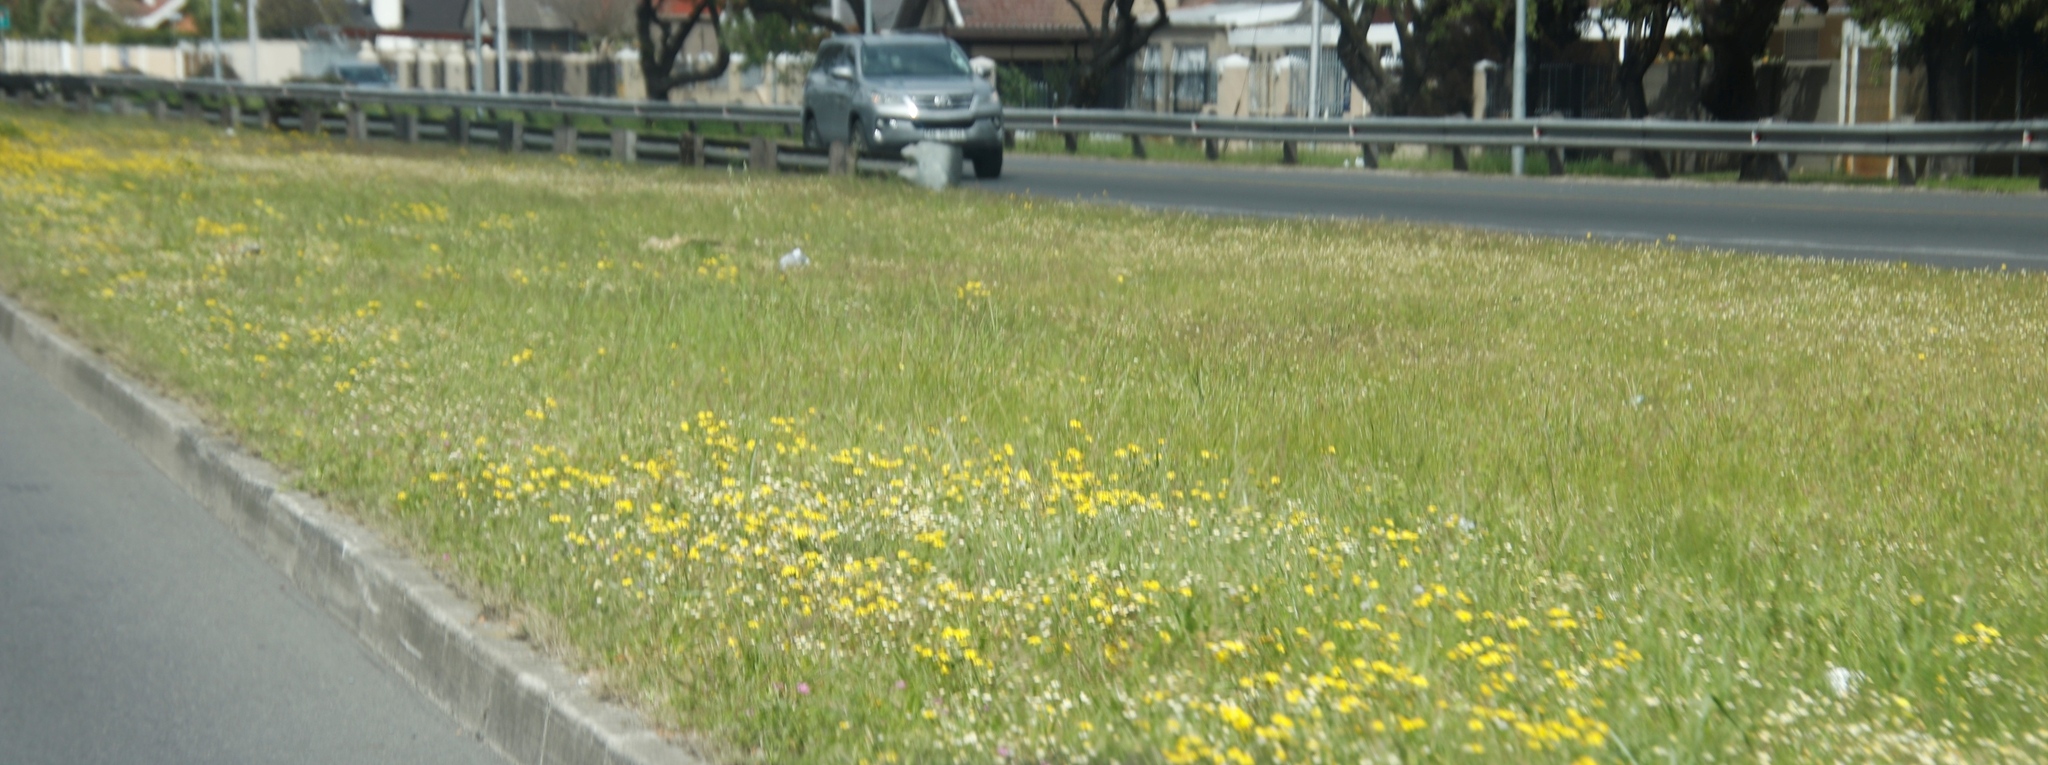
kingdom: Plantae
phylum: Tracheophyta
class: Magnoliopsida
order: Asterales
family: Asteraceae
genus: Senecio
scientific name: Senecio littoreus
